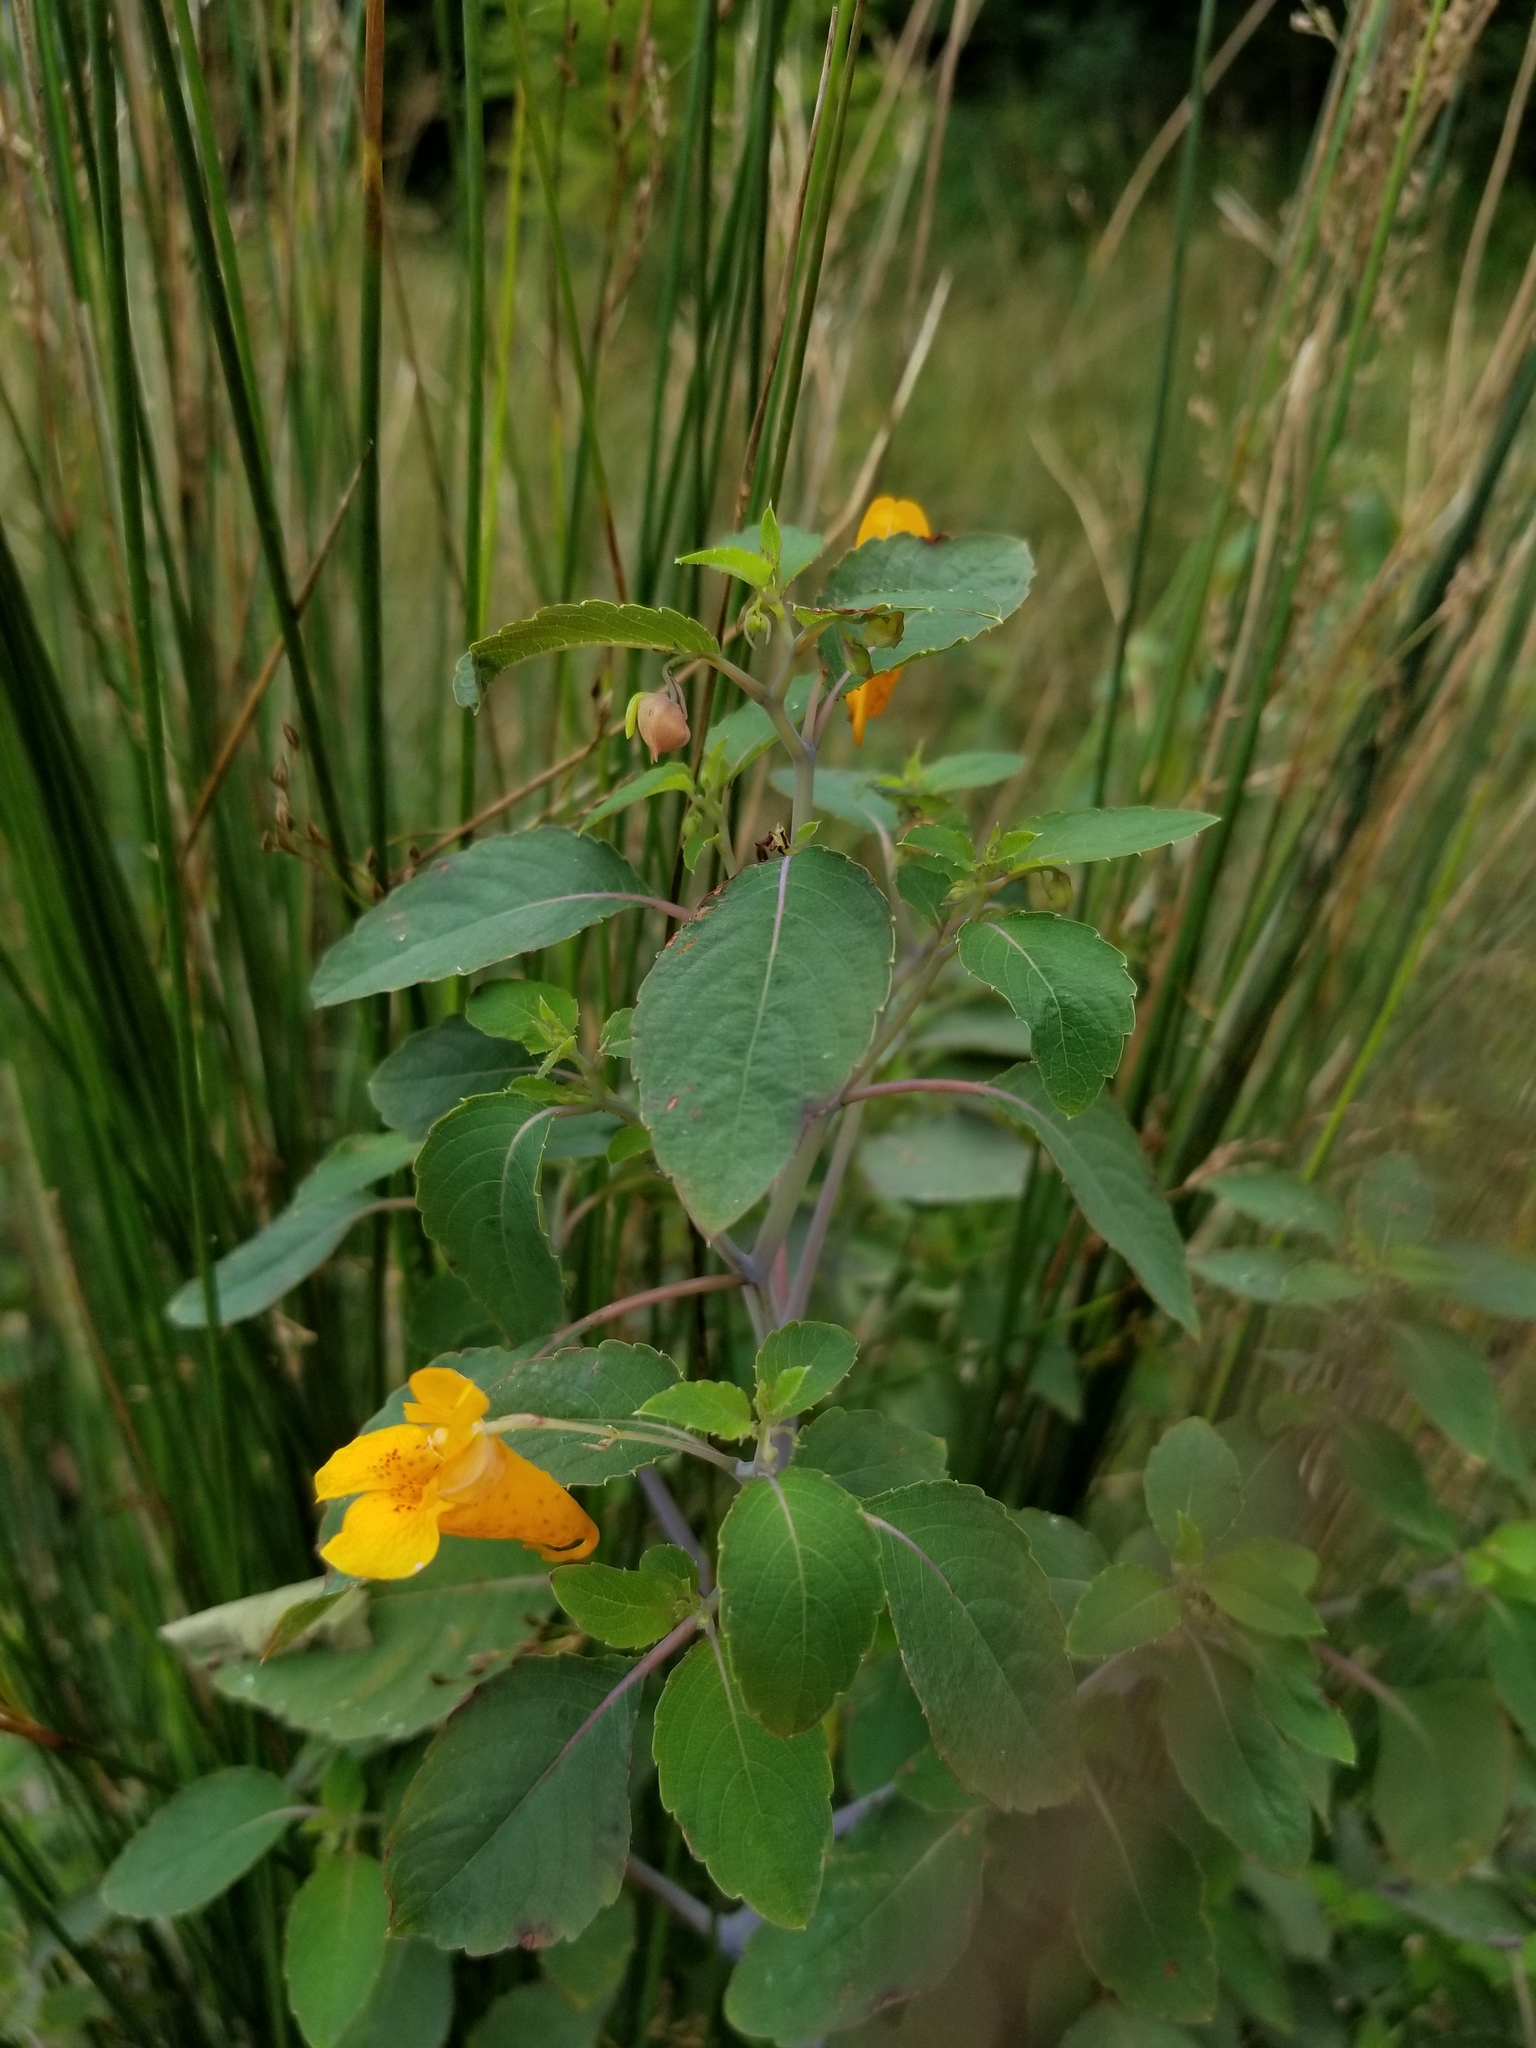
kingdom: Plantae
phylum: Tracheophyta
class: Magnoliopsida
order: Ericales
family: Balsaminaceae
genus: Impatiens
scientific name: Impatiens capensis
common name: Orange balsam
